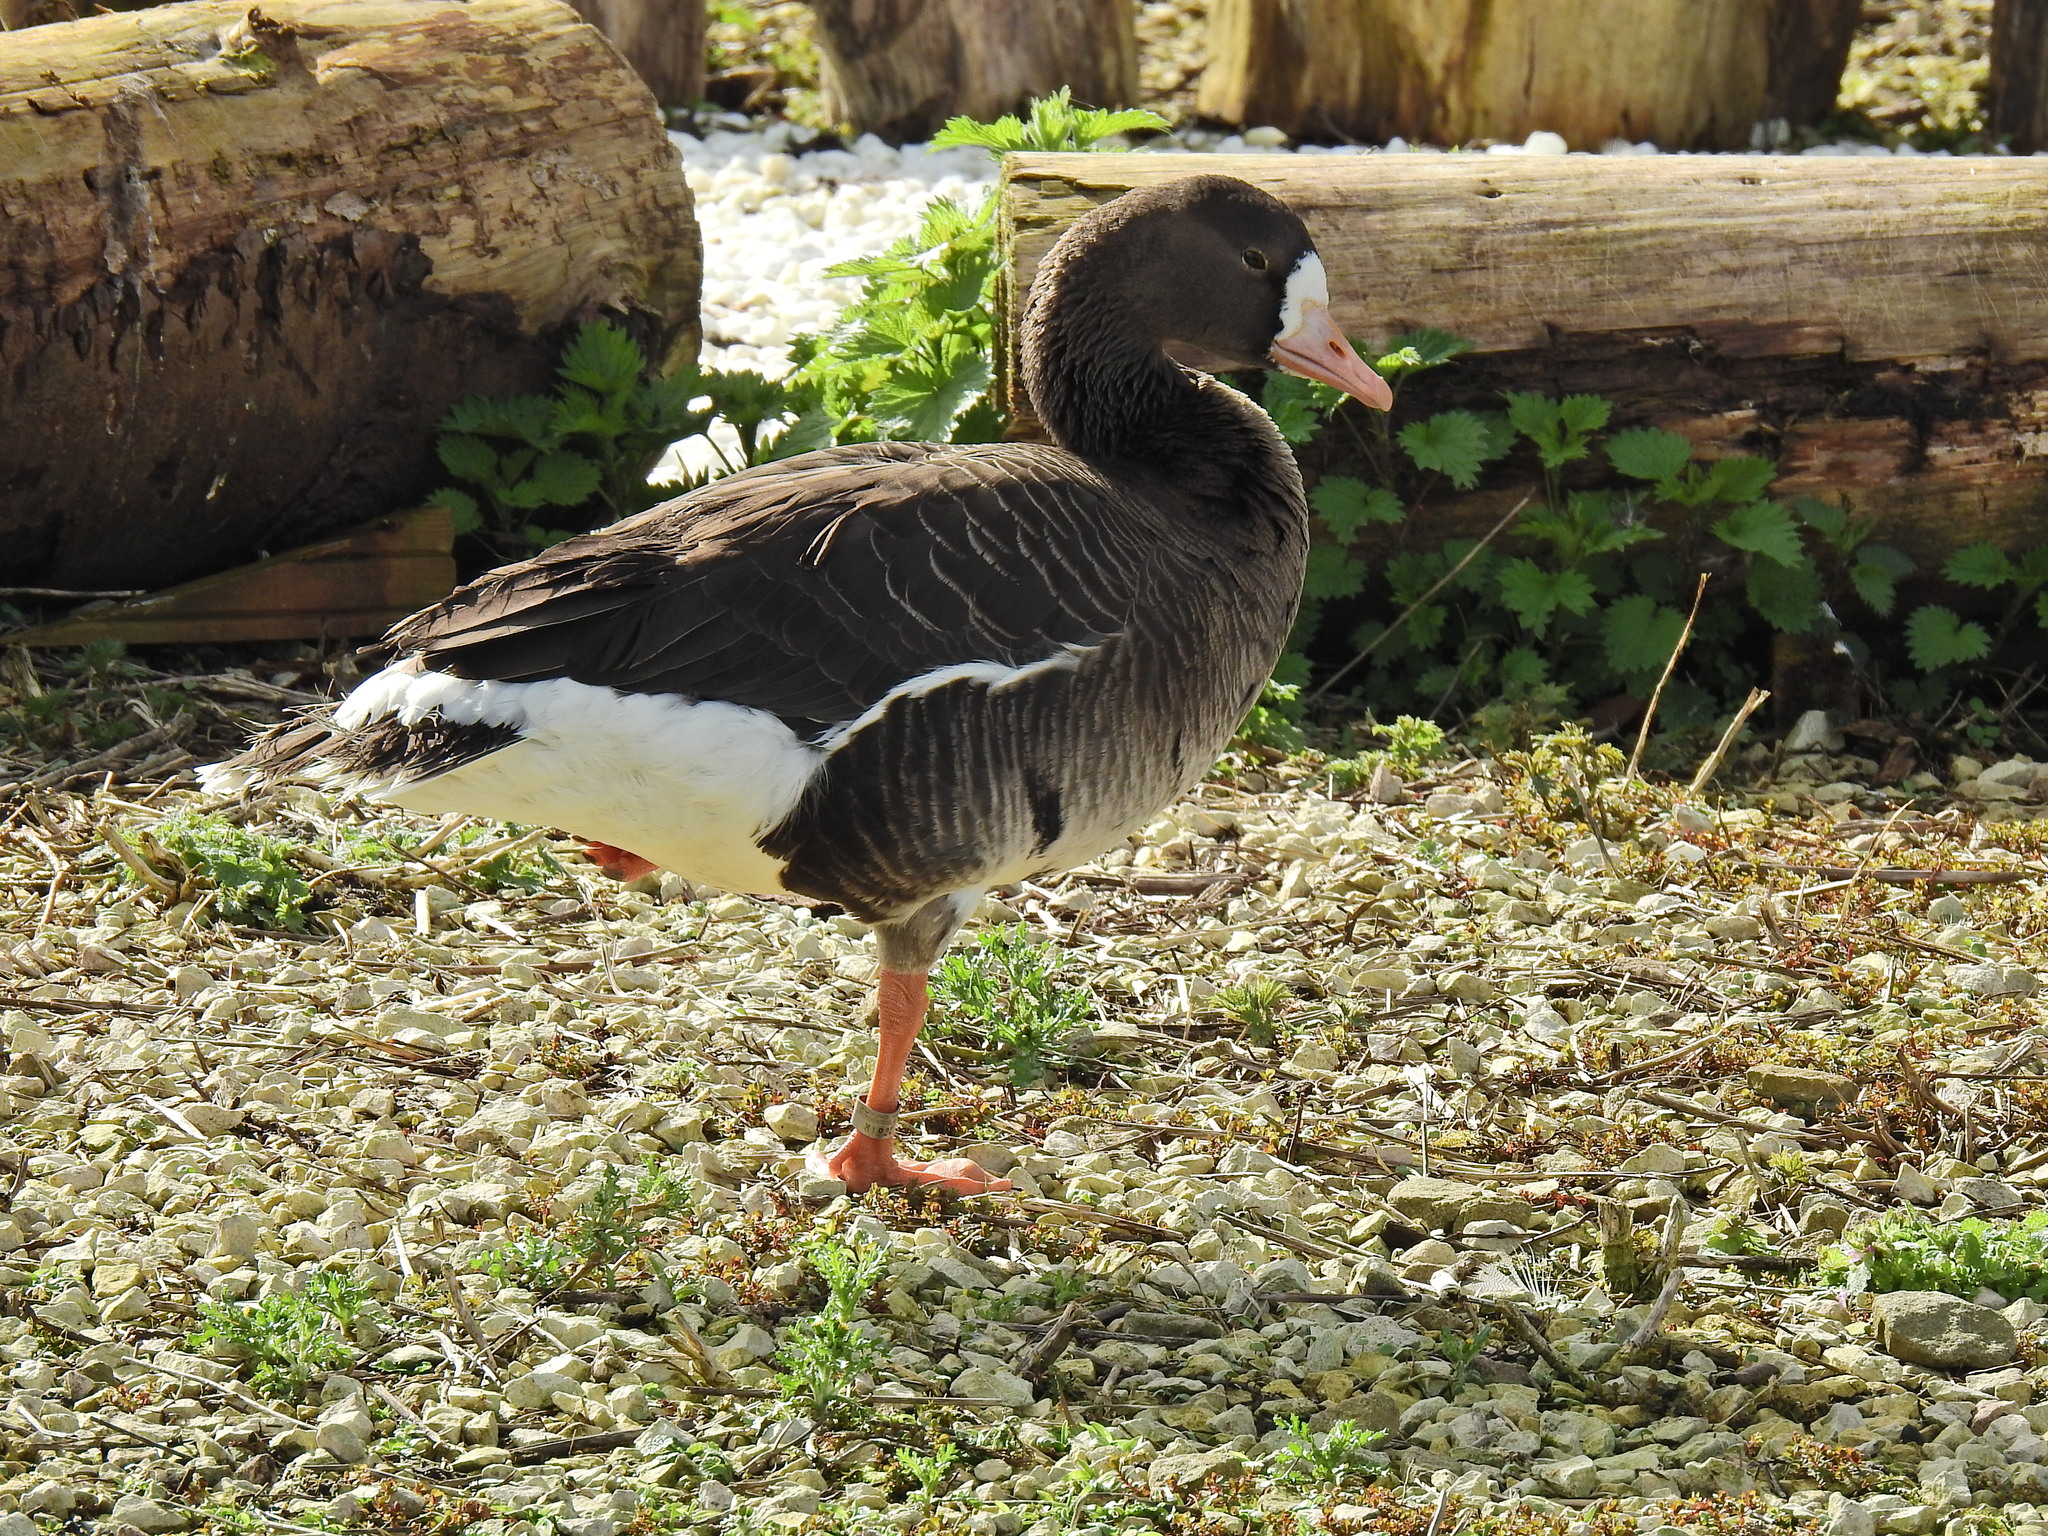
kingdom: Animalia
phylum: Chordata
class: Aves
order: Anseriformes
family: Anatidae
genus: Anser
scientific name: Anser albifrons
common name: Greater white-fronted goose
